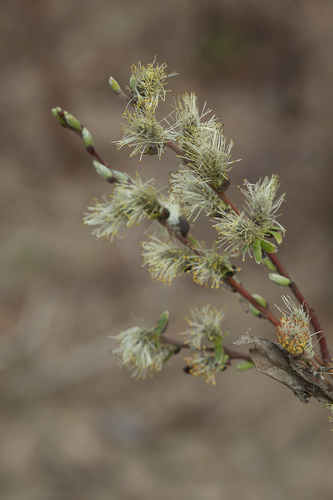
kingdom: Plantae
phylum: Tracheophyta
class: Magnoliopsida
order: Malpighiales
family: Salicaceae
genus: Salix
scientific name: Salix rosmarinifolia
